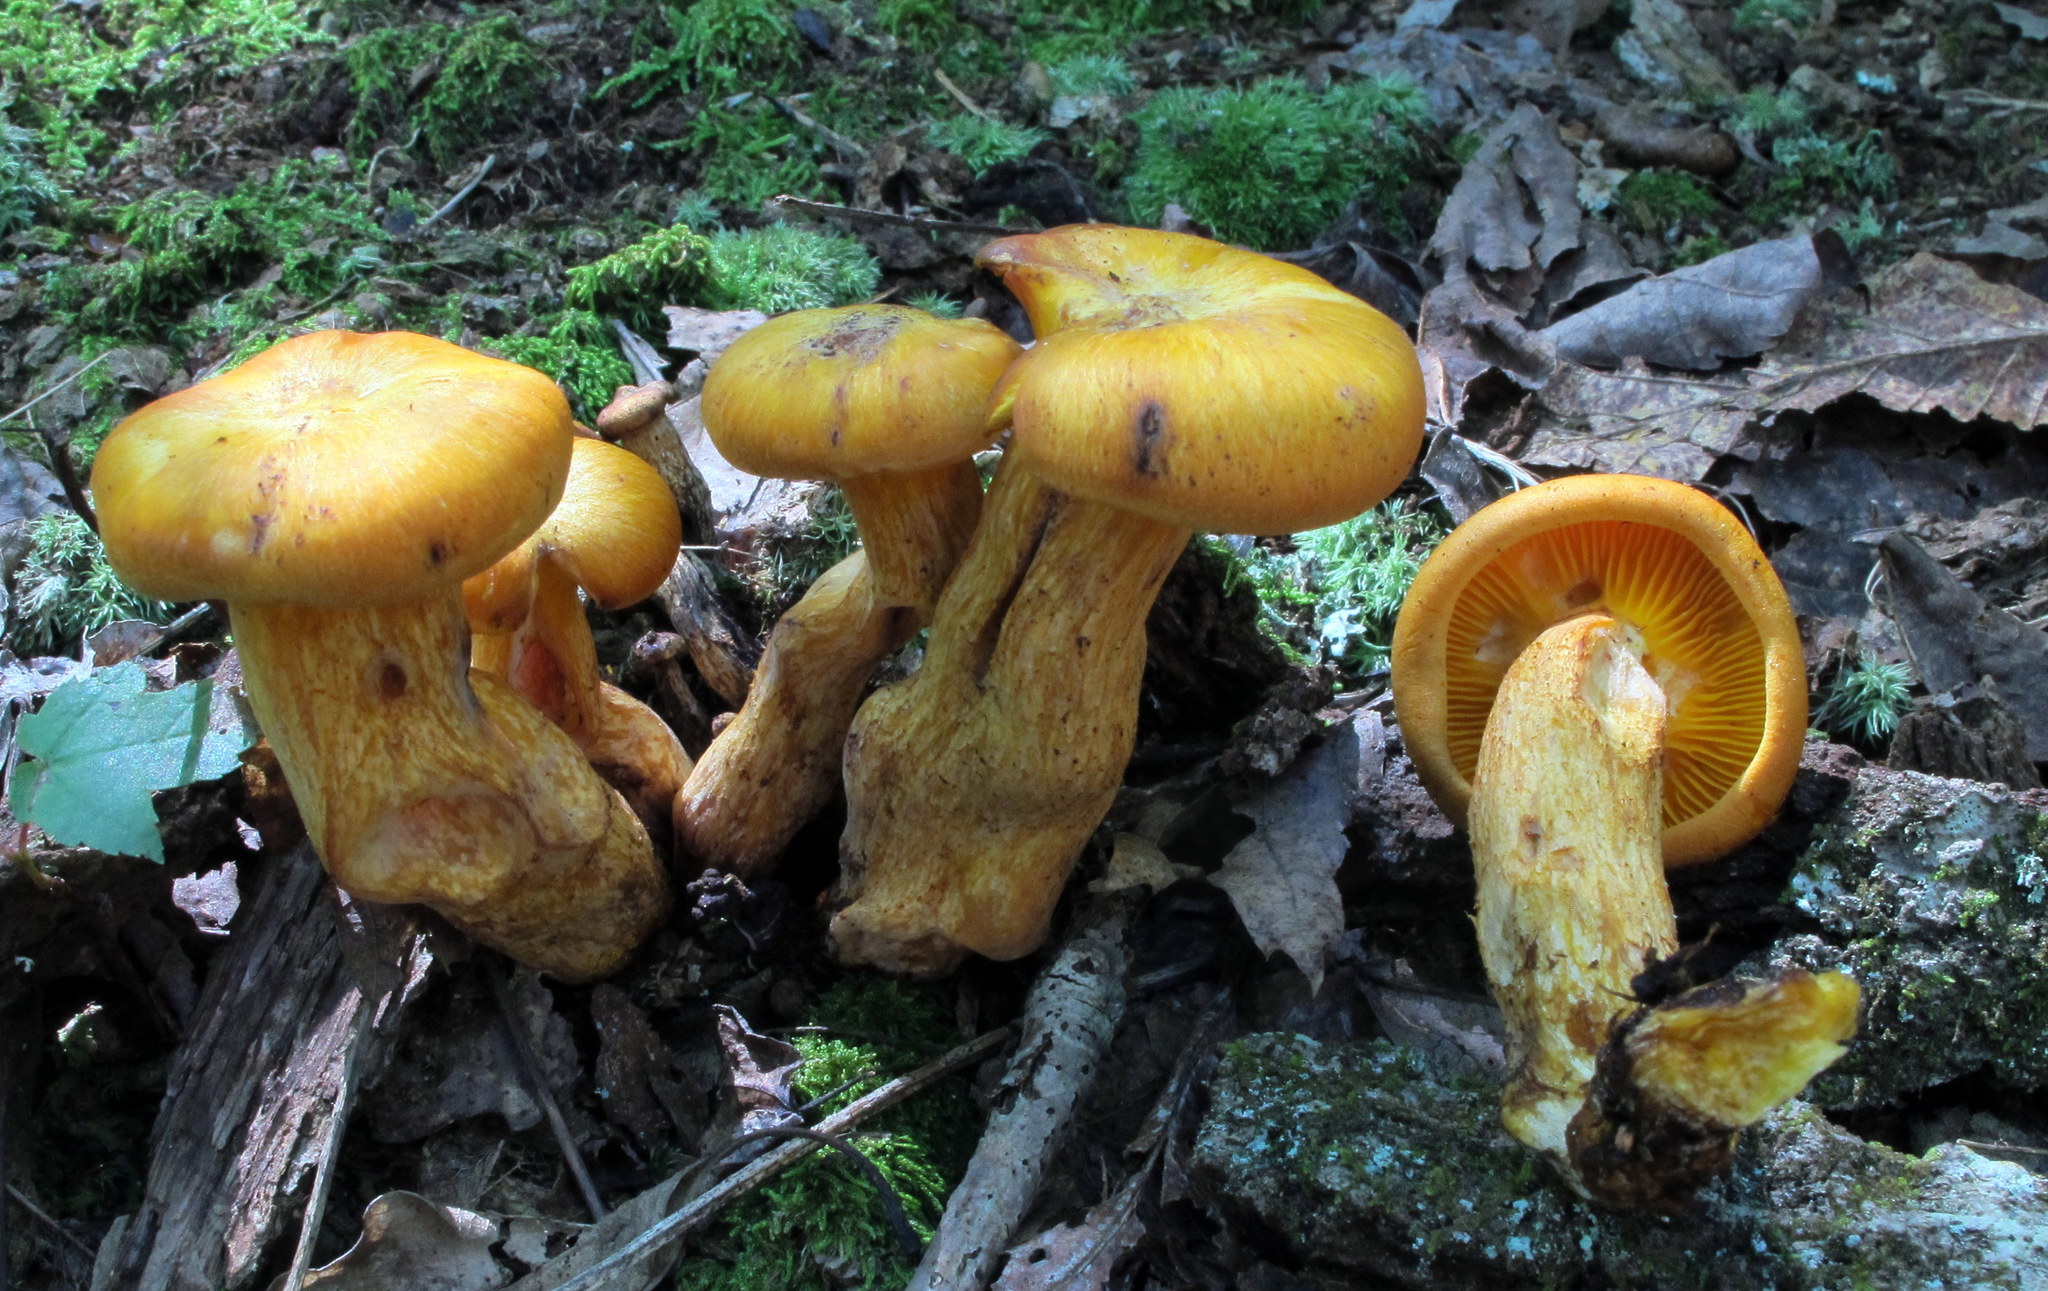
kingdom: Fungi
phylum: Basidiomycota
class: Agaricomycetes
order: Agaricales
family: Omphalotaceae
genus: Omphalotus
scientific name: Omphalotus illudens
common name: Jack o lantern
